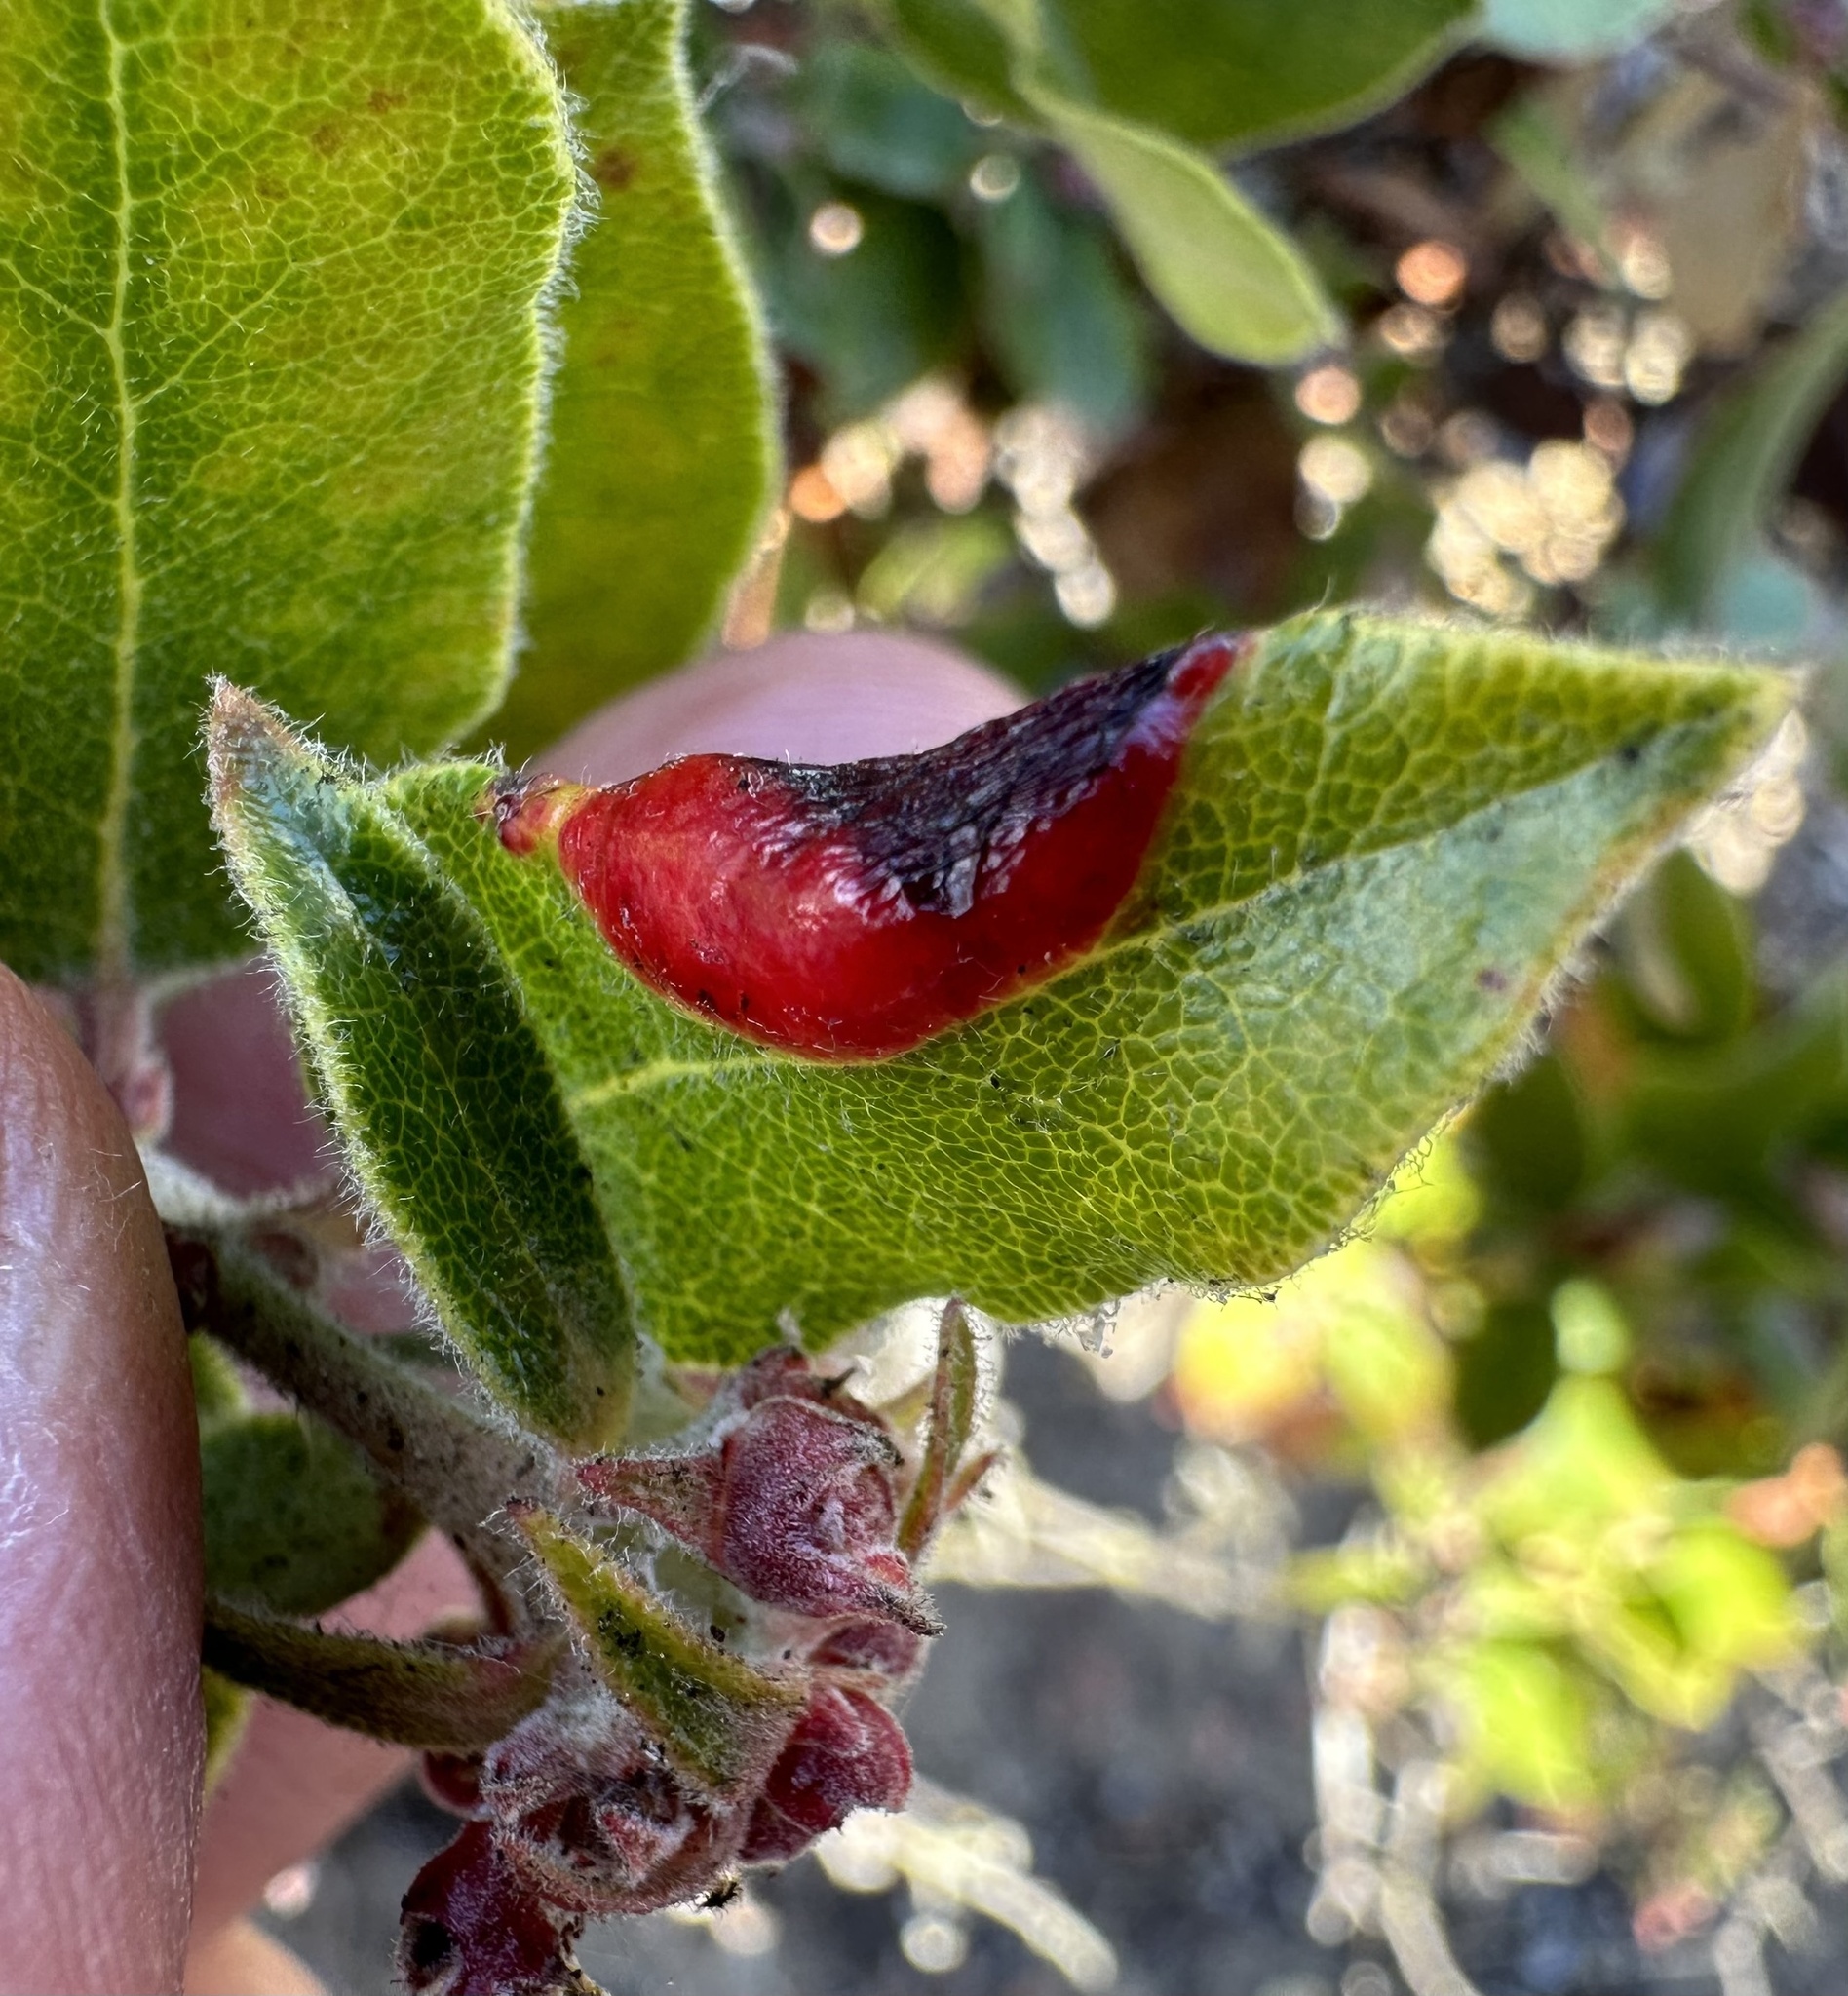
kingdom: Animalia
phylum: Arthropoda
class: Insecta
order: Hemiptera
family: Aphididae
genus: Tamalia
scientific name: Tamalia coweni
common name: Manzanita leafgall aphid
